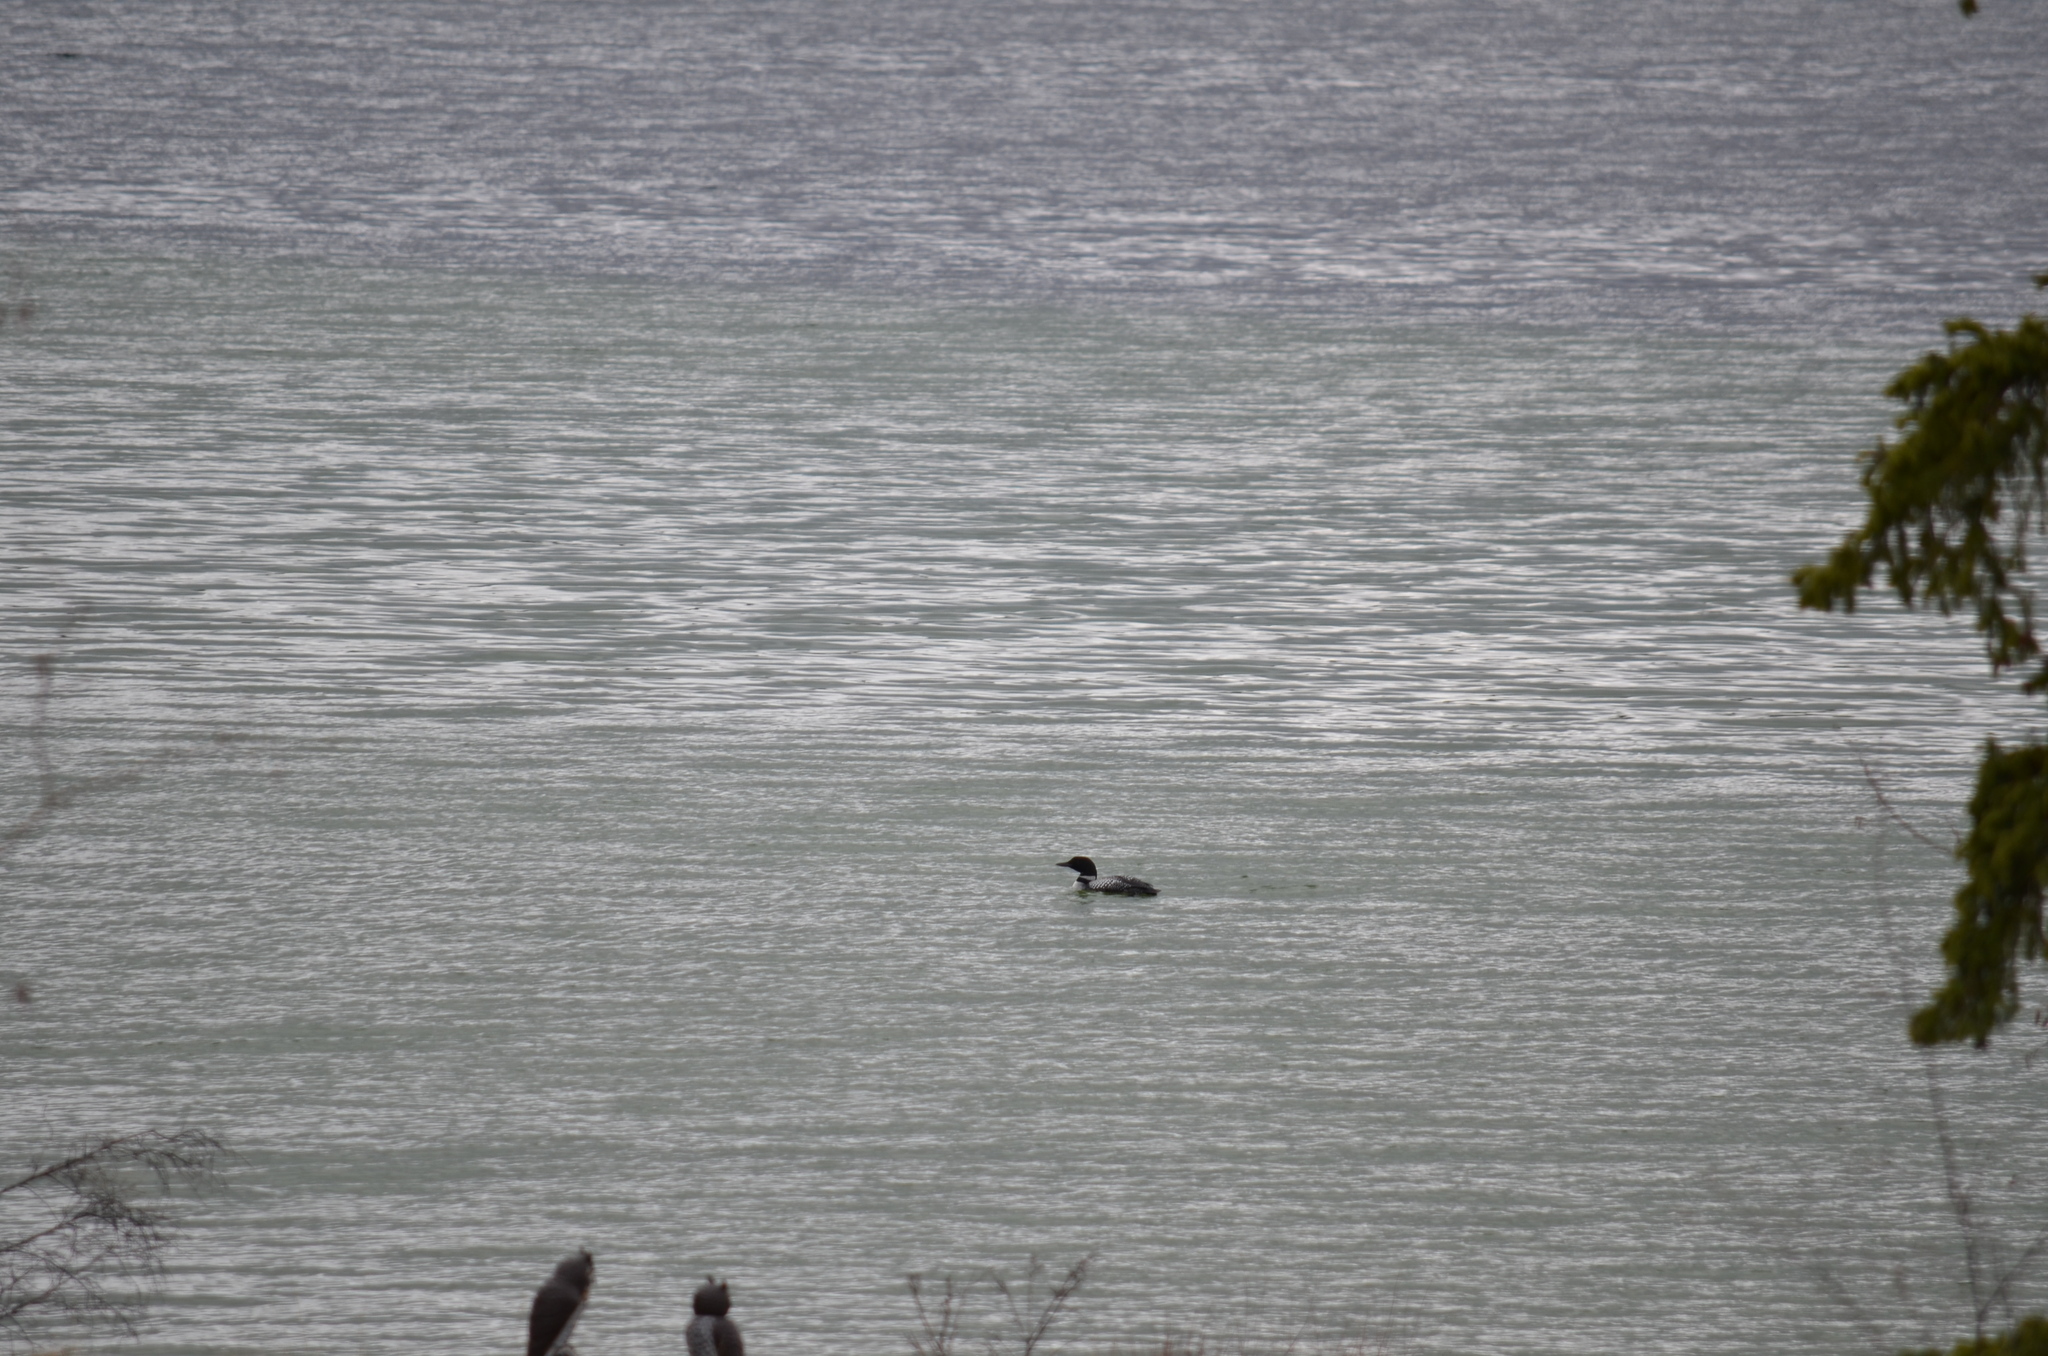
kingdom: Animalia
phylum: Chordata
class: Aves
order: Gaviiformes
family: Gaviidae
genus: Gavia
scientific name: Gavia immer
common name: Common loon
